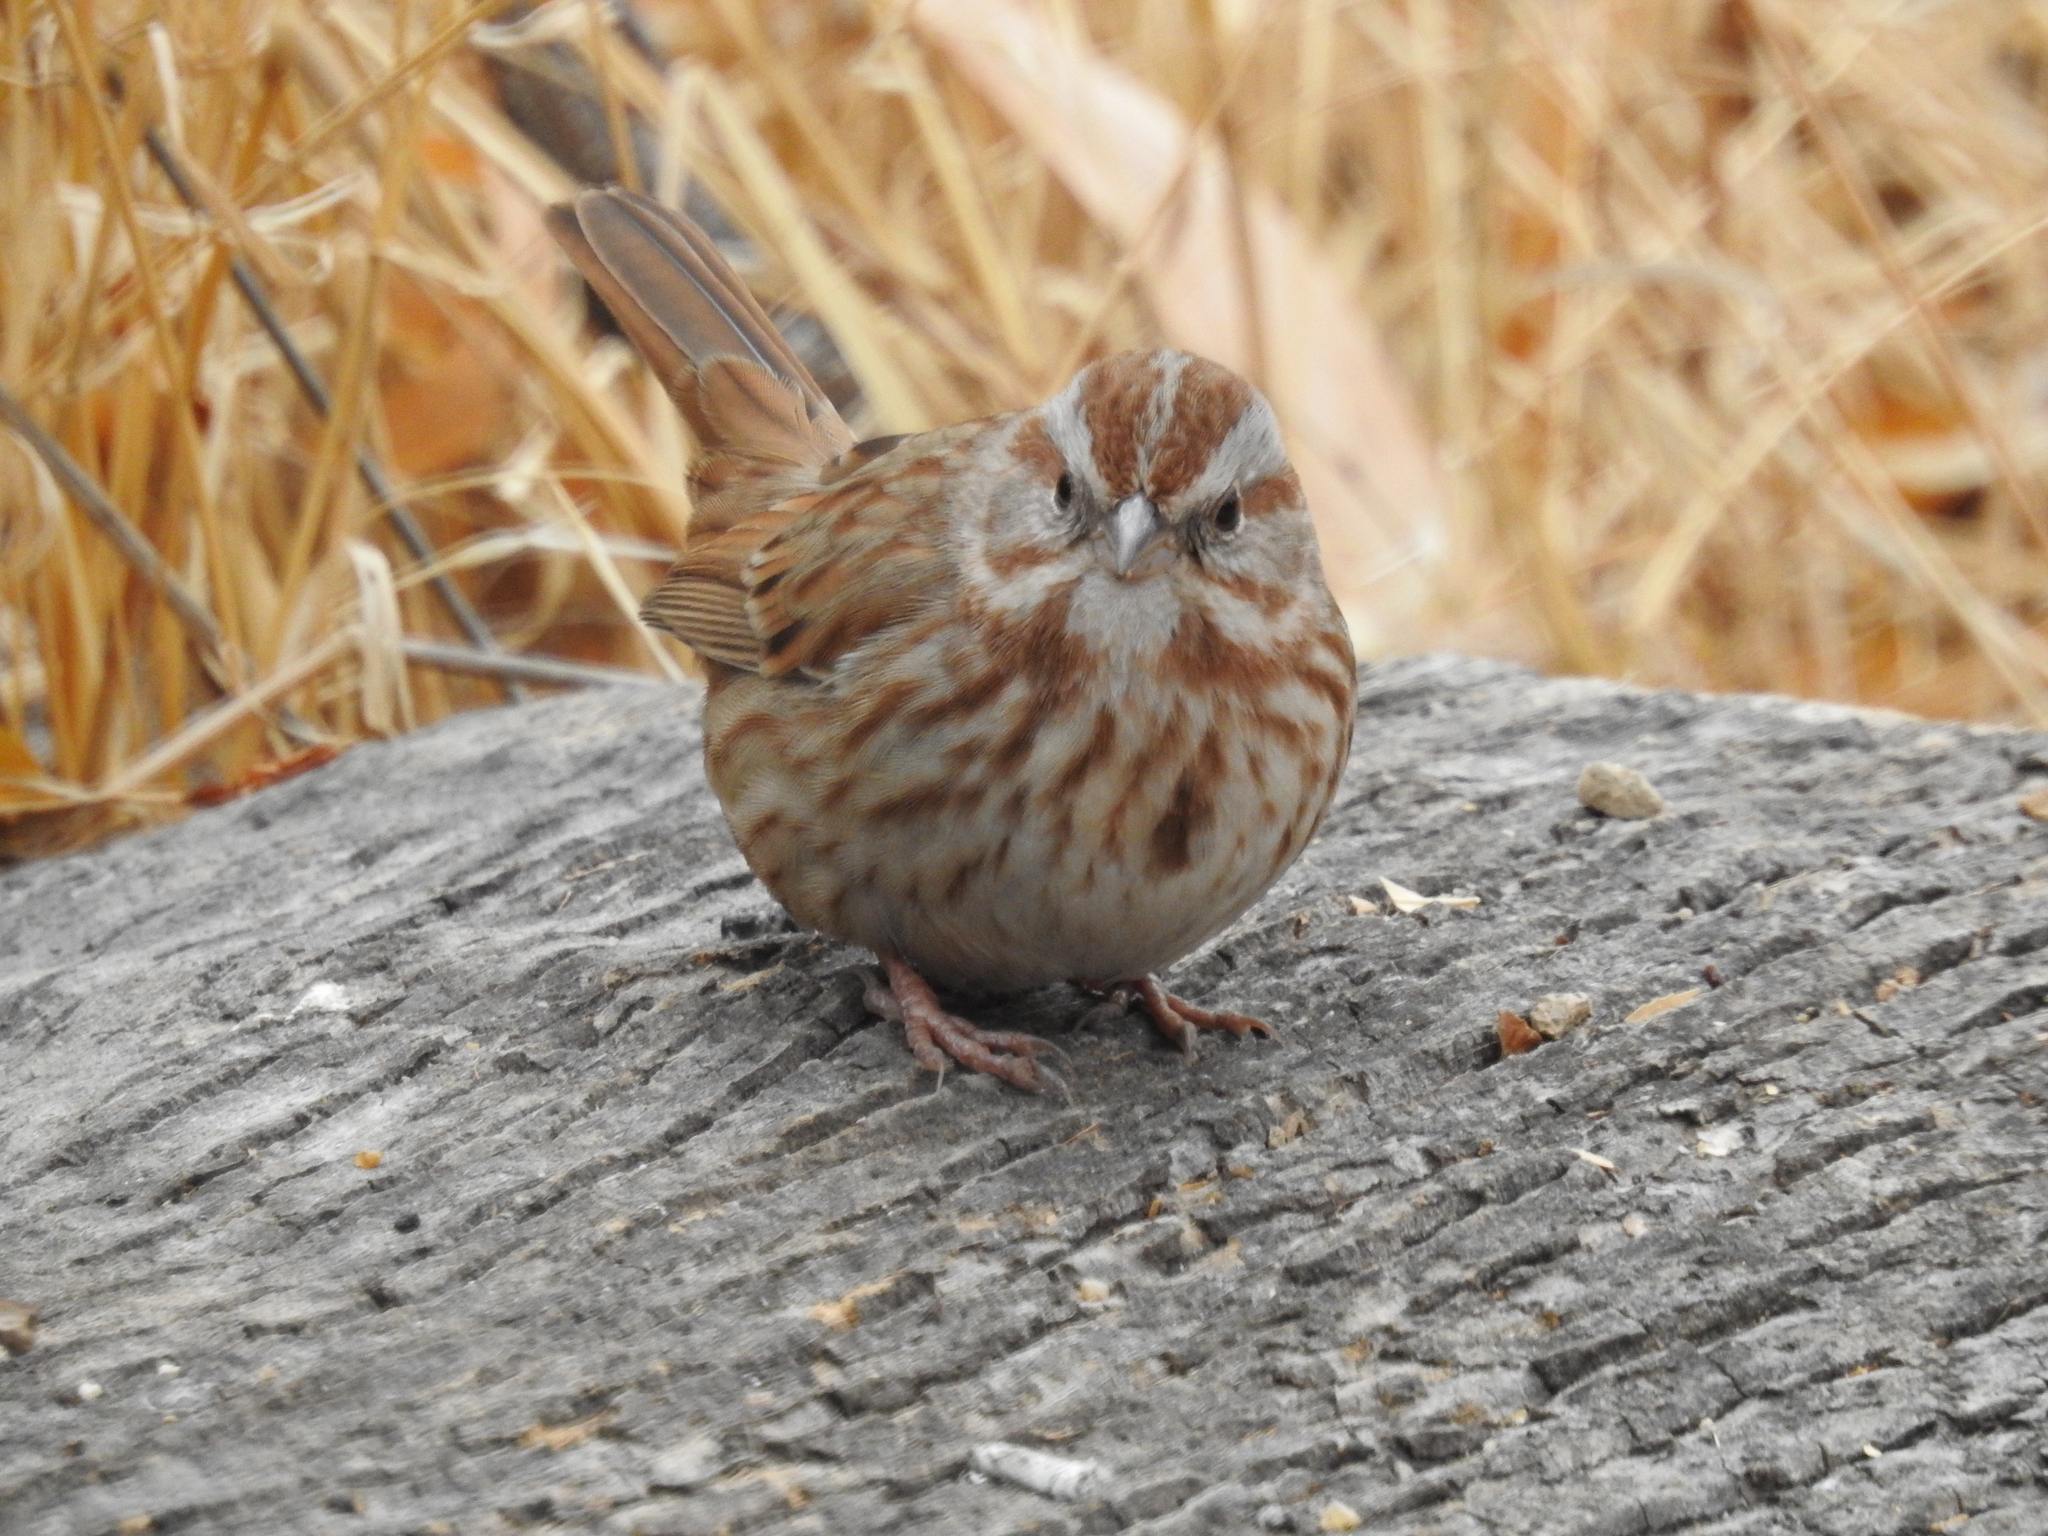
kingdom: Animalia
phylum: Chordata
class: Aves
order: Passeriformes
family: Passerellidae
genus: Melospiza
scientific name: Melospiza melodia
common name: Song sparrow
